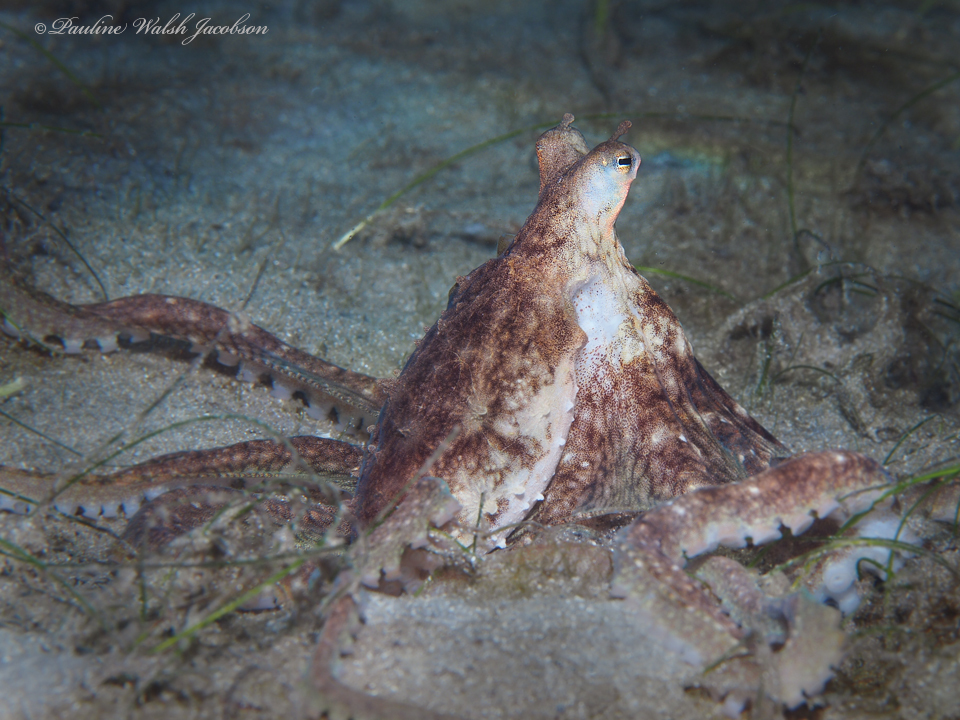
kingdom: Animalia
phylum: Mollusca
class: Cephalopoda
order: Octopoda
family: Octopodidae
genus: Macrotritopus
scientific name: Macrotritopus defilippi
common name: Lilliput longarm octopus
